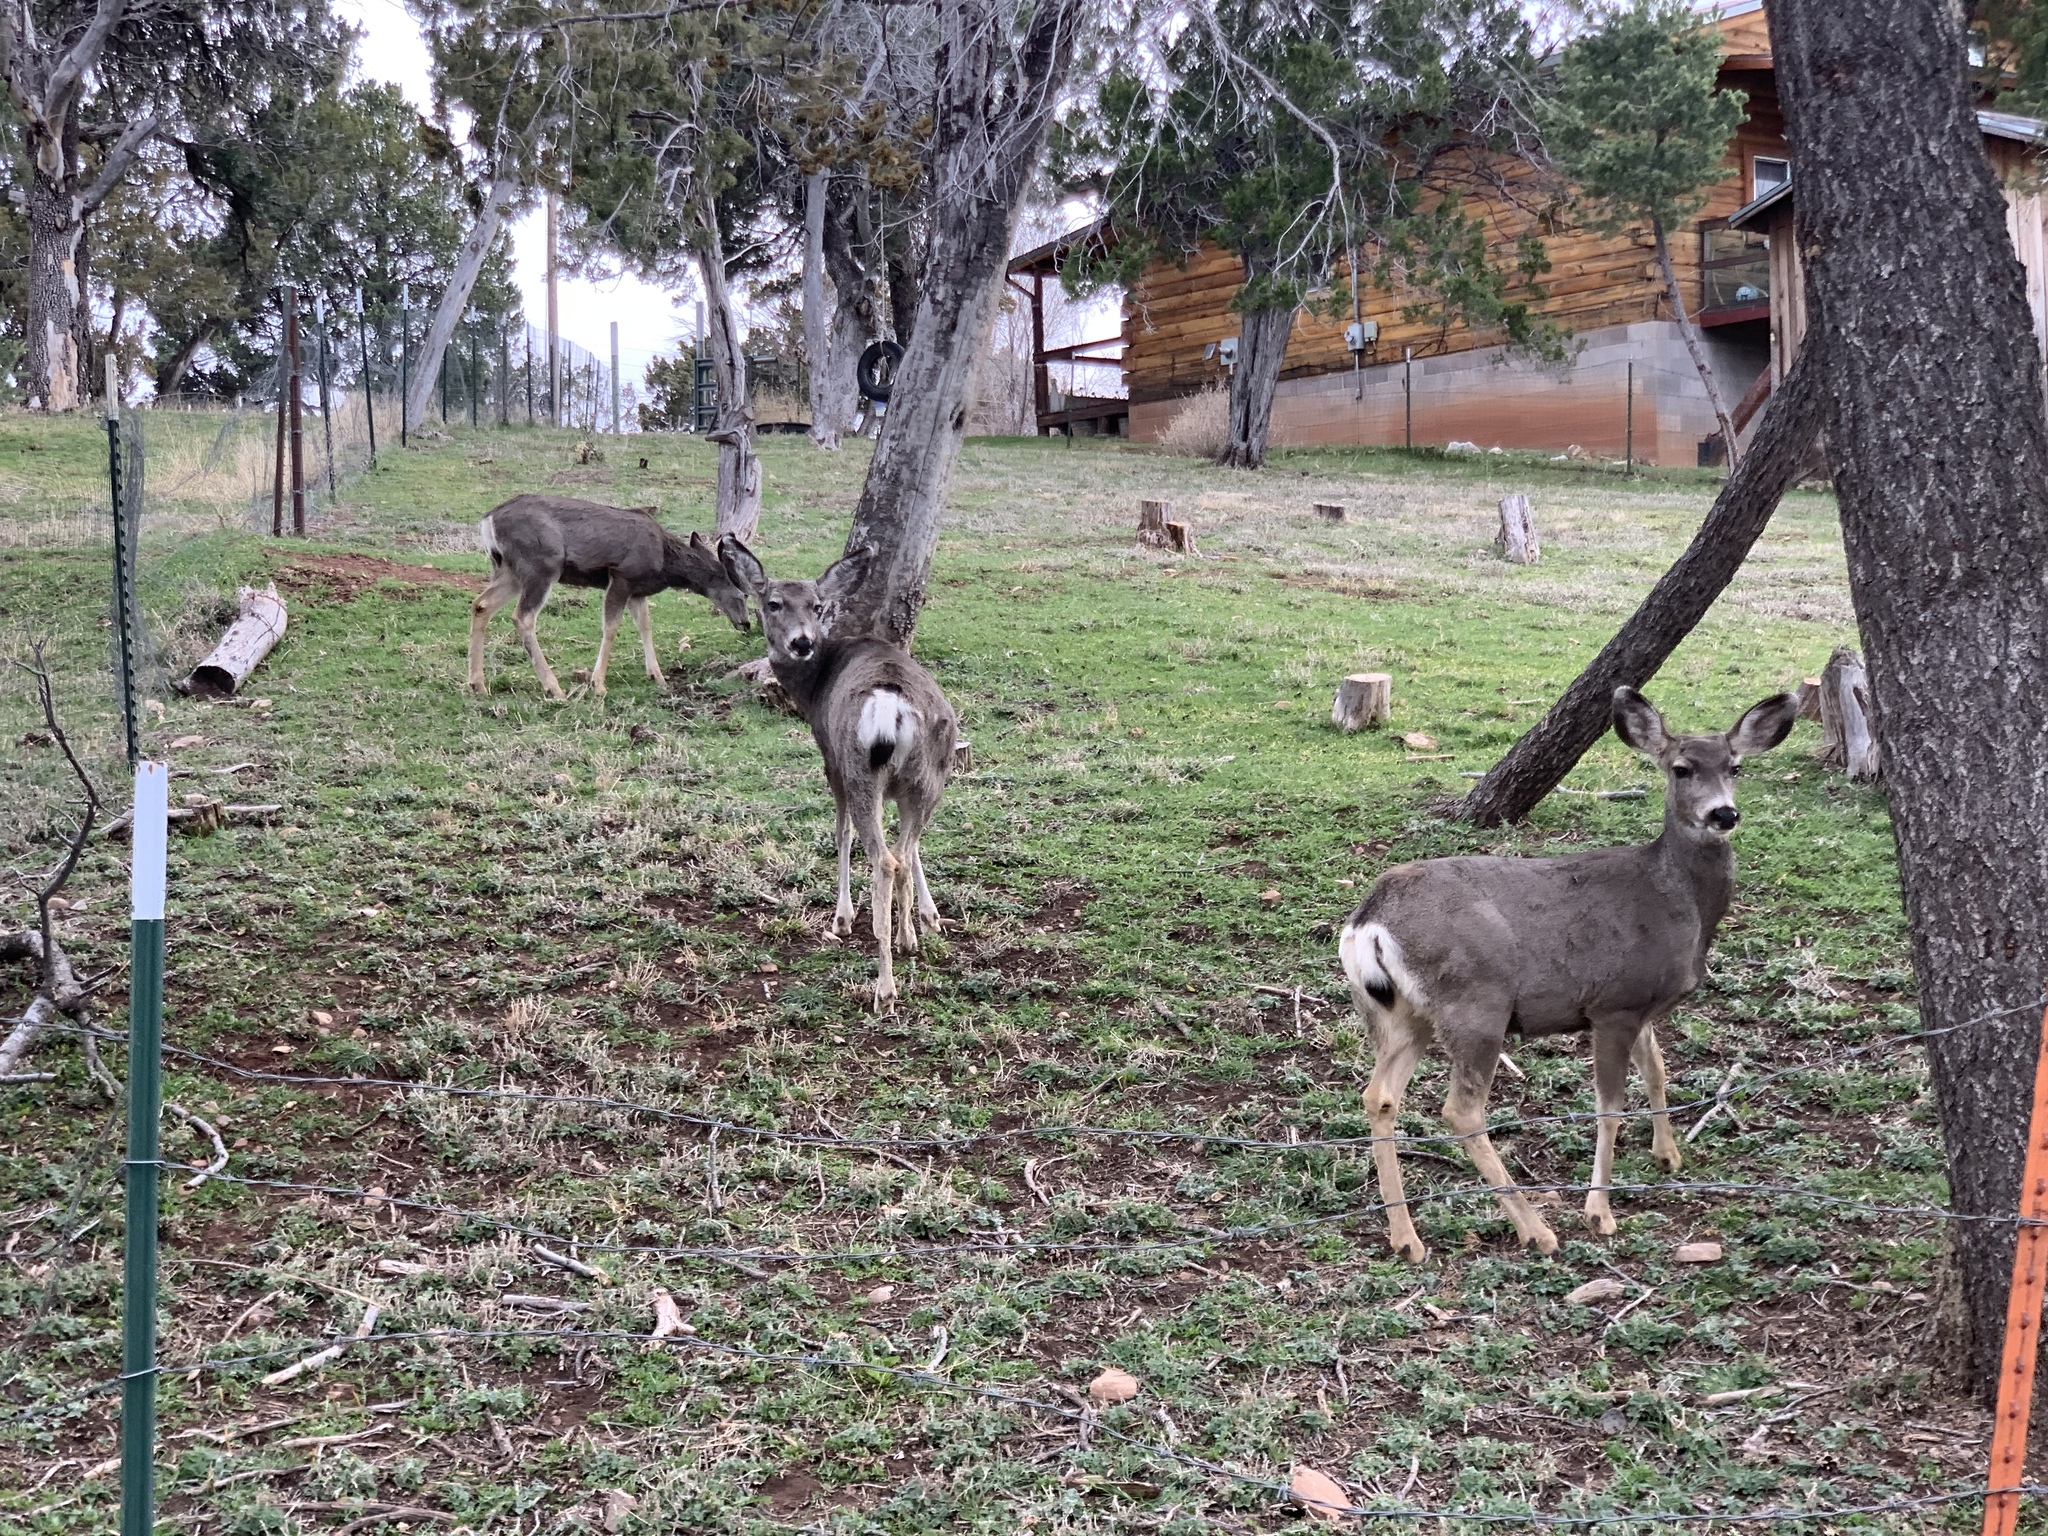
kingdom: Animalia
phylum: Chordata
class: Mammalia
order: Artiodactyla
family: Cervidae
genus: Odocoileus
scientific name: Odocoileus hemionus
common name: Mule deer
